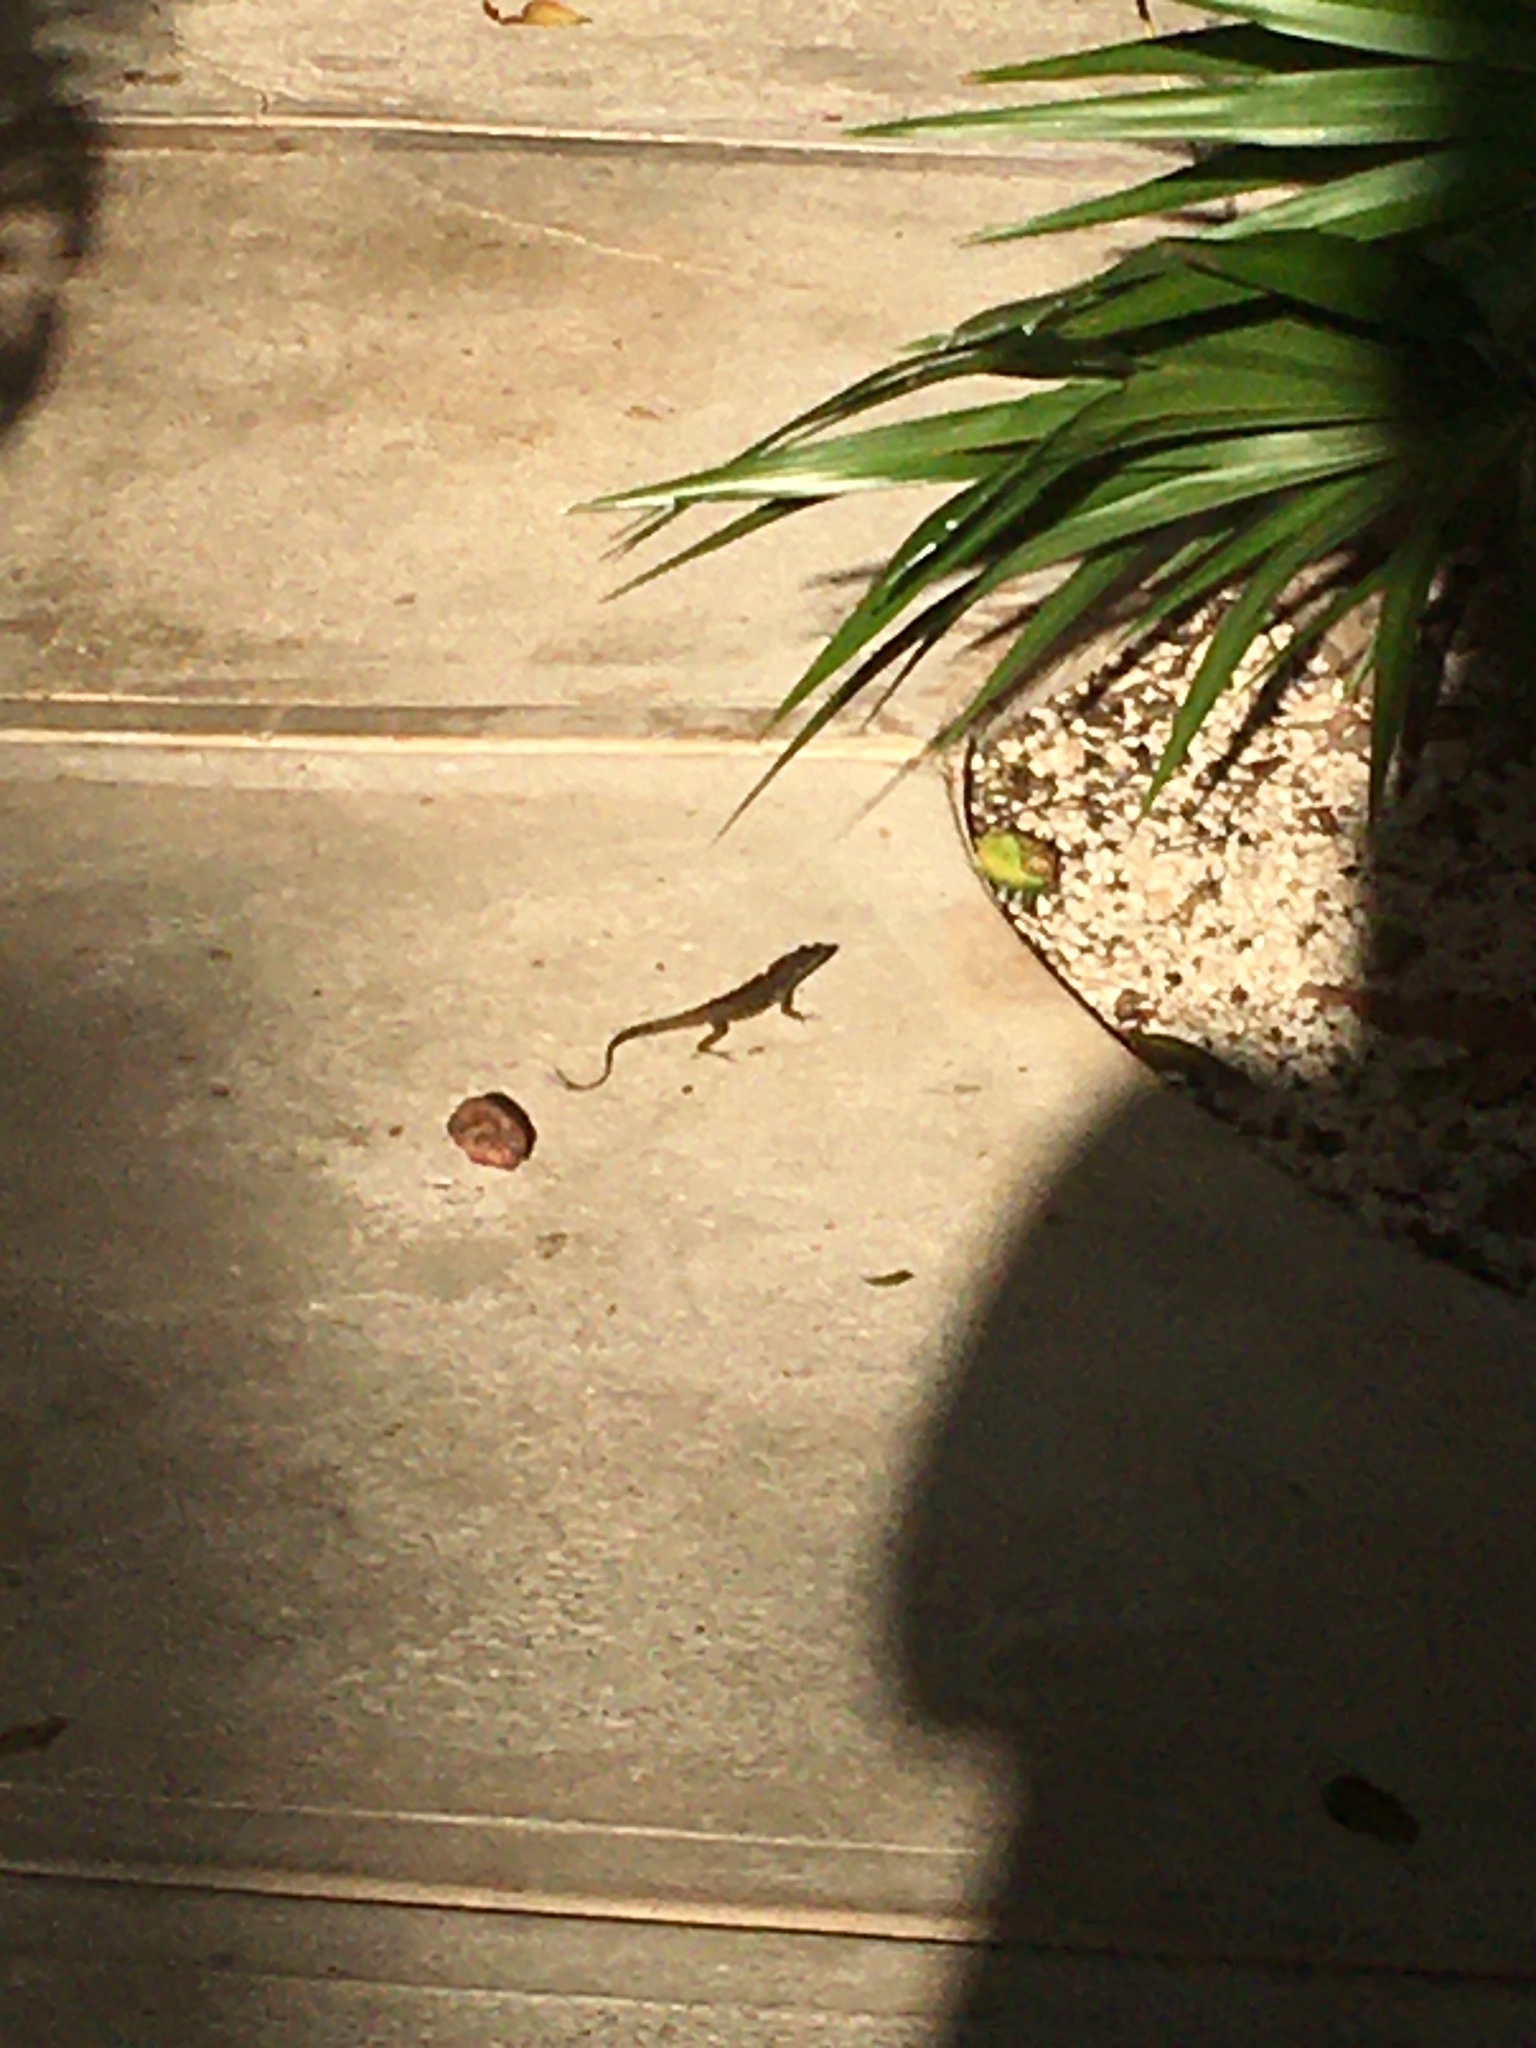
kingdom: Animalia
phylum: Chordata
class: Squamata
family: Dactyloidae
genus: Anolis
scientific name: Anolis sagrei
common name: Brown anole
